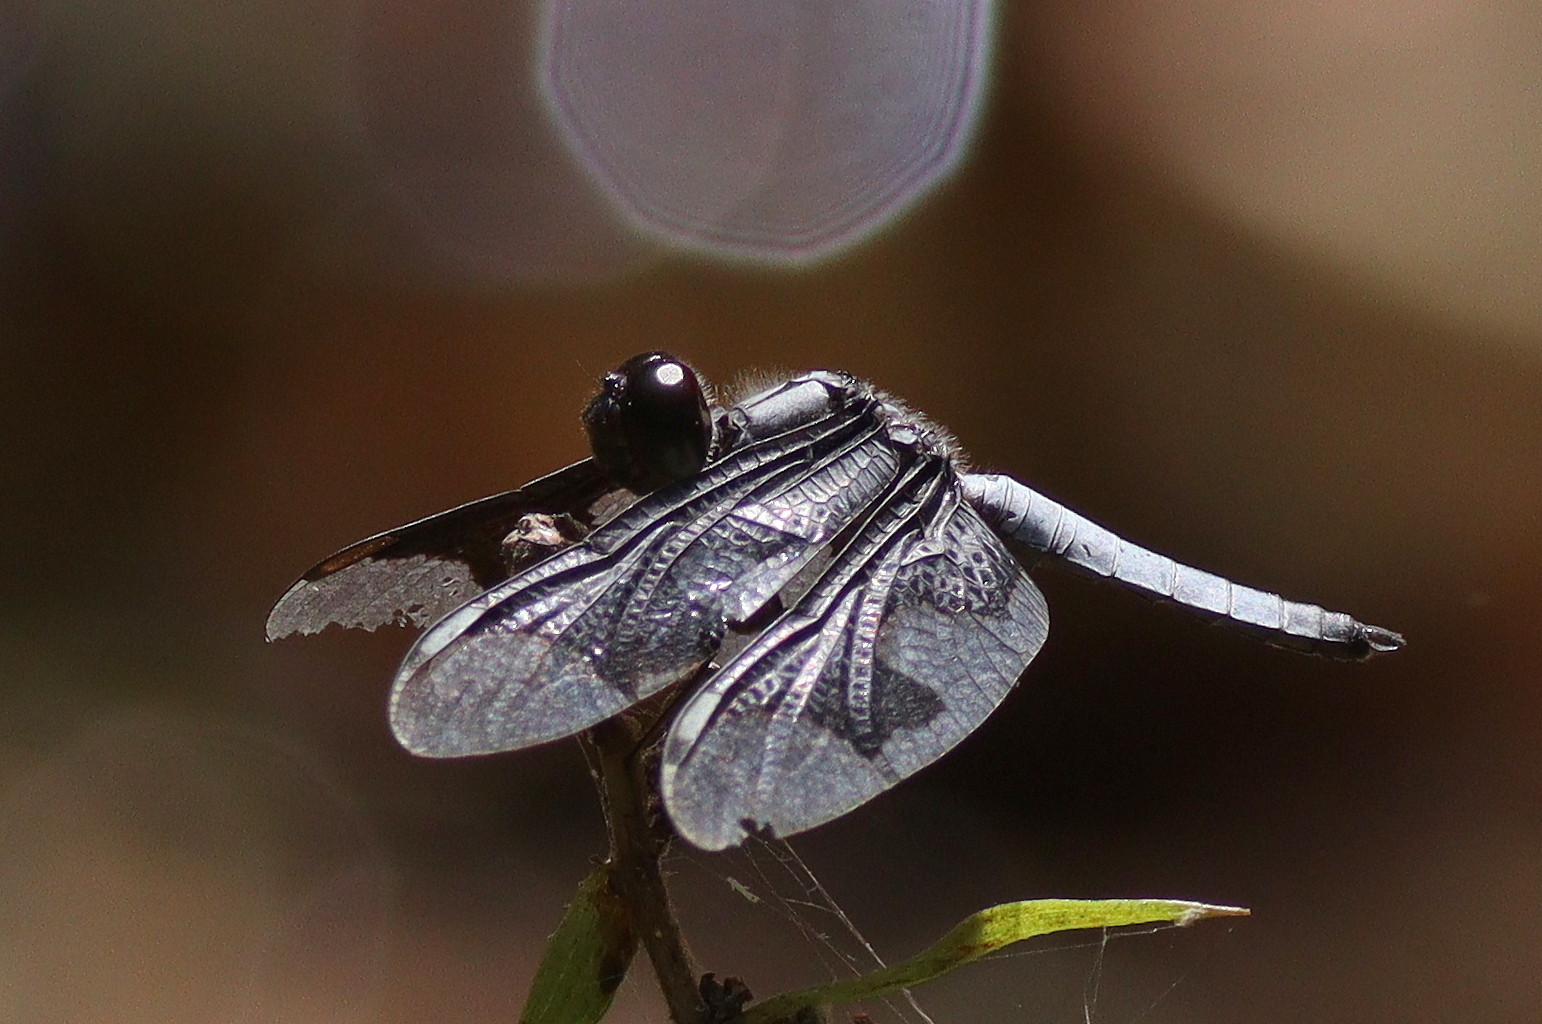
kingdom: Animalia
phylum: Arthropoda
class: Insecta
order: Odonata
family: Libellulidae
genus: Palpopleura
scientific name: Palpopleura portia
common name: Portia widow
